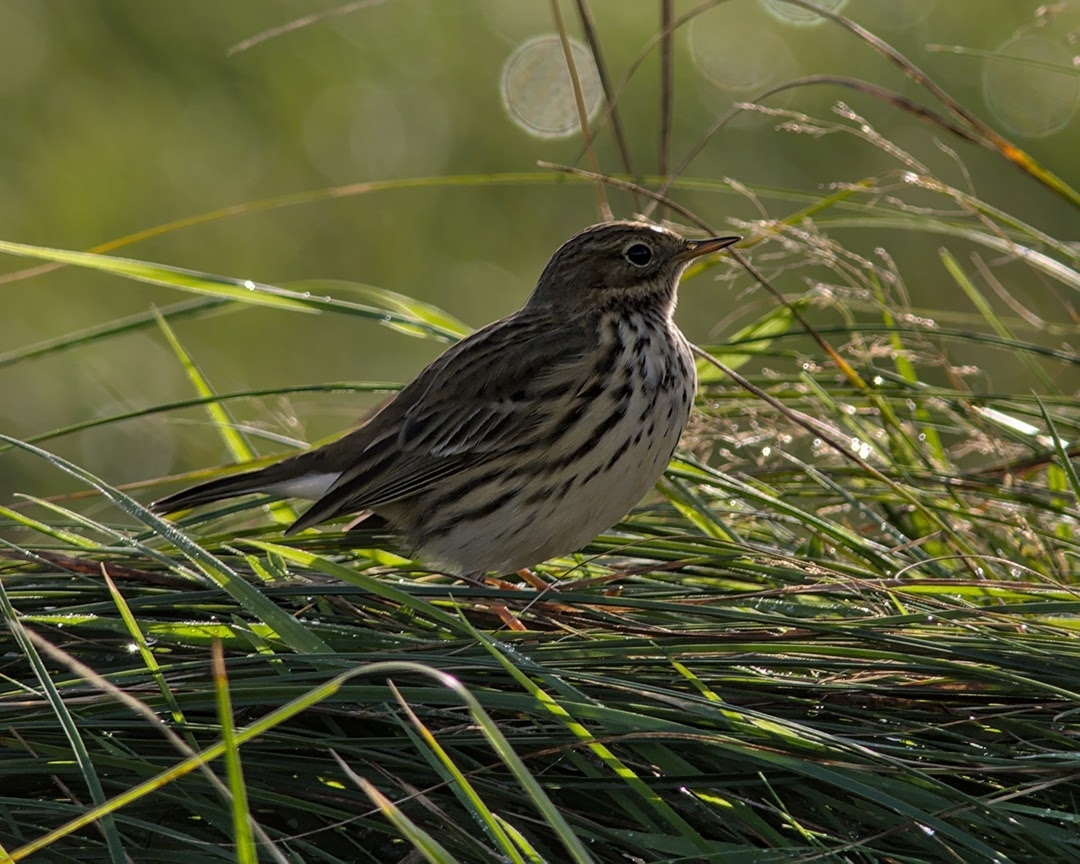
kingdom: Animalia
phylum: Chordata
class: Aves
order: Passeriformes
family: Motacillidae
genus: Anthus
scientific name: Anthus pratensis
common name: Meadow pipit
